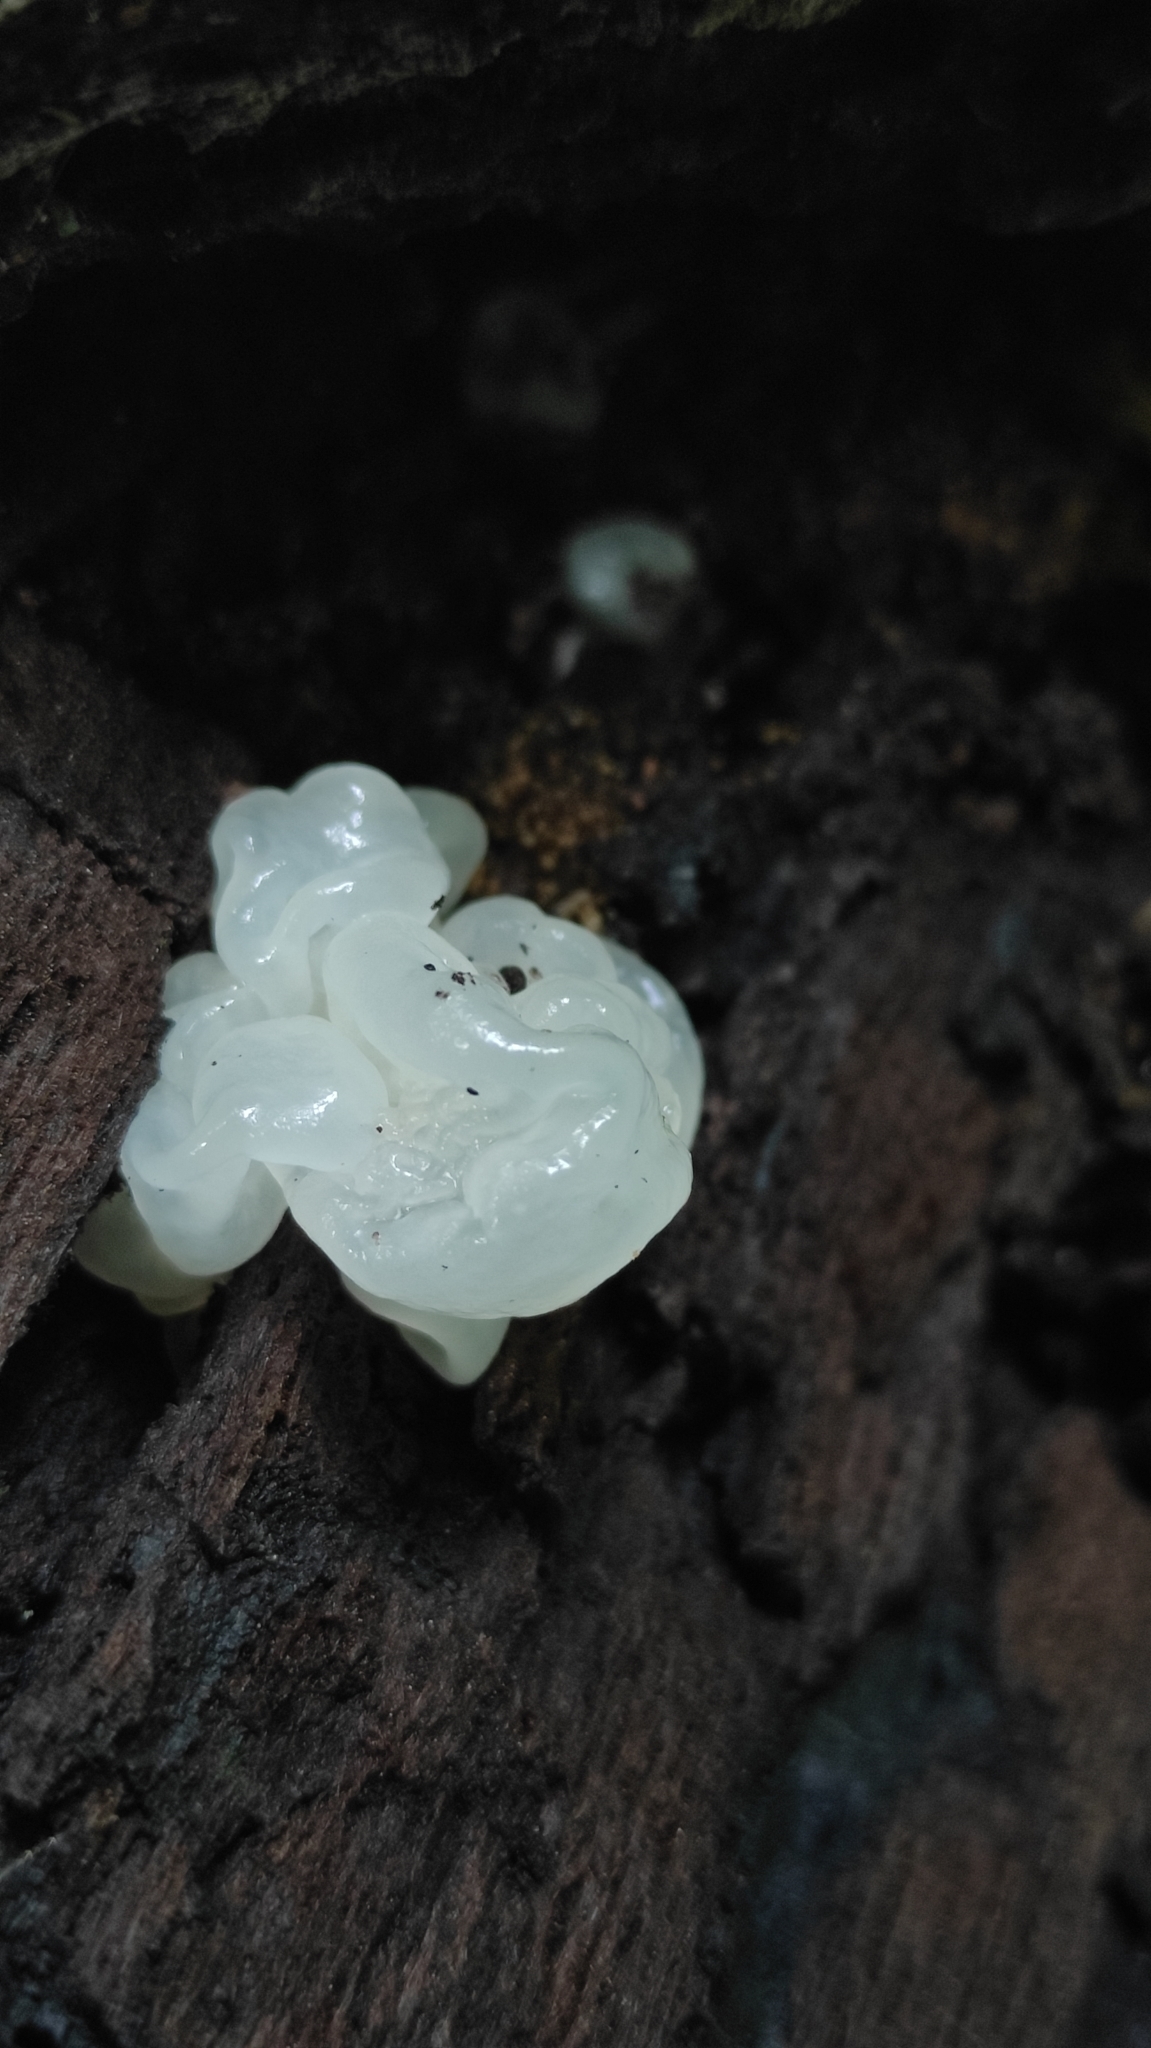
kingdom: Fungi
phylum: Basidiomycota
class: Tremellomycetes
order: Tremellales
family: Tremellaceae
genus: Tremella
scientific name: Tremella fuciformis
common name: Snow fungus
